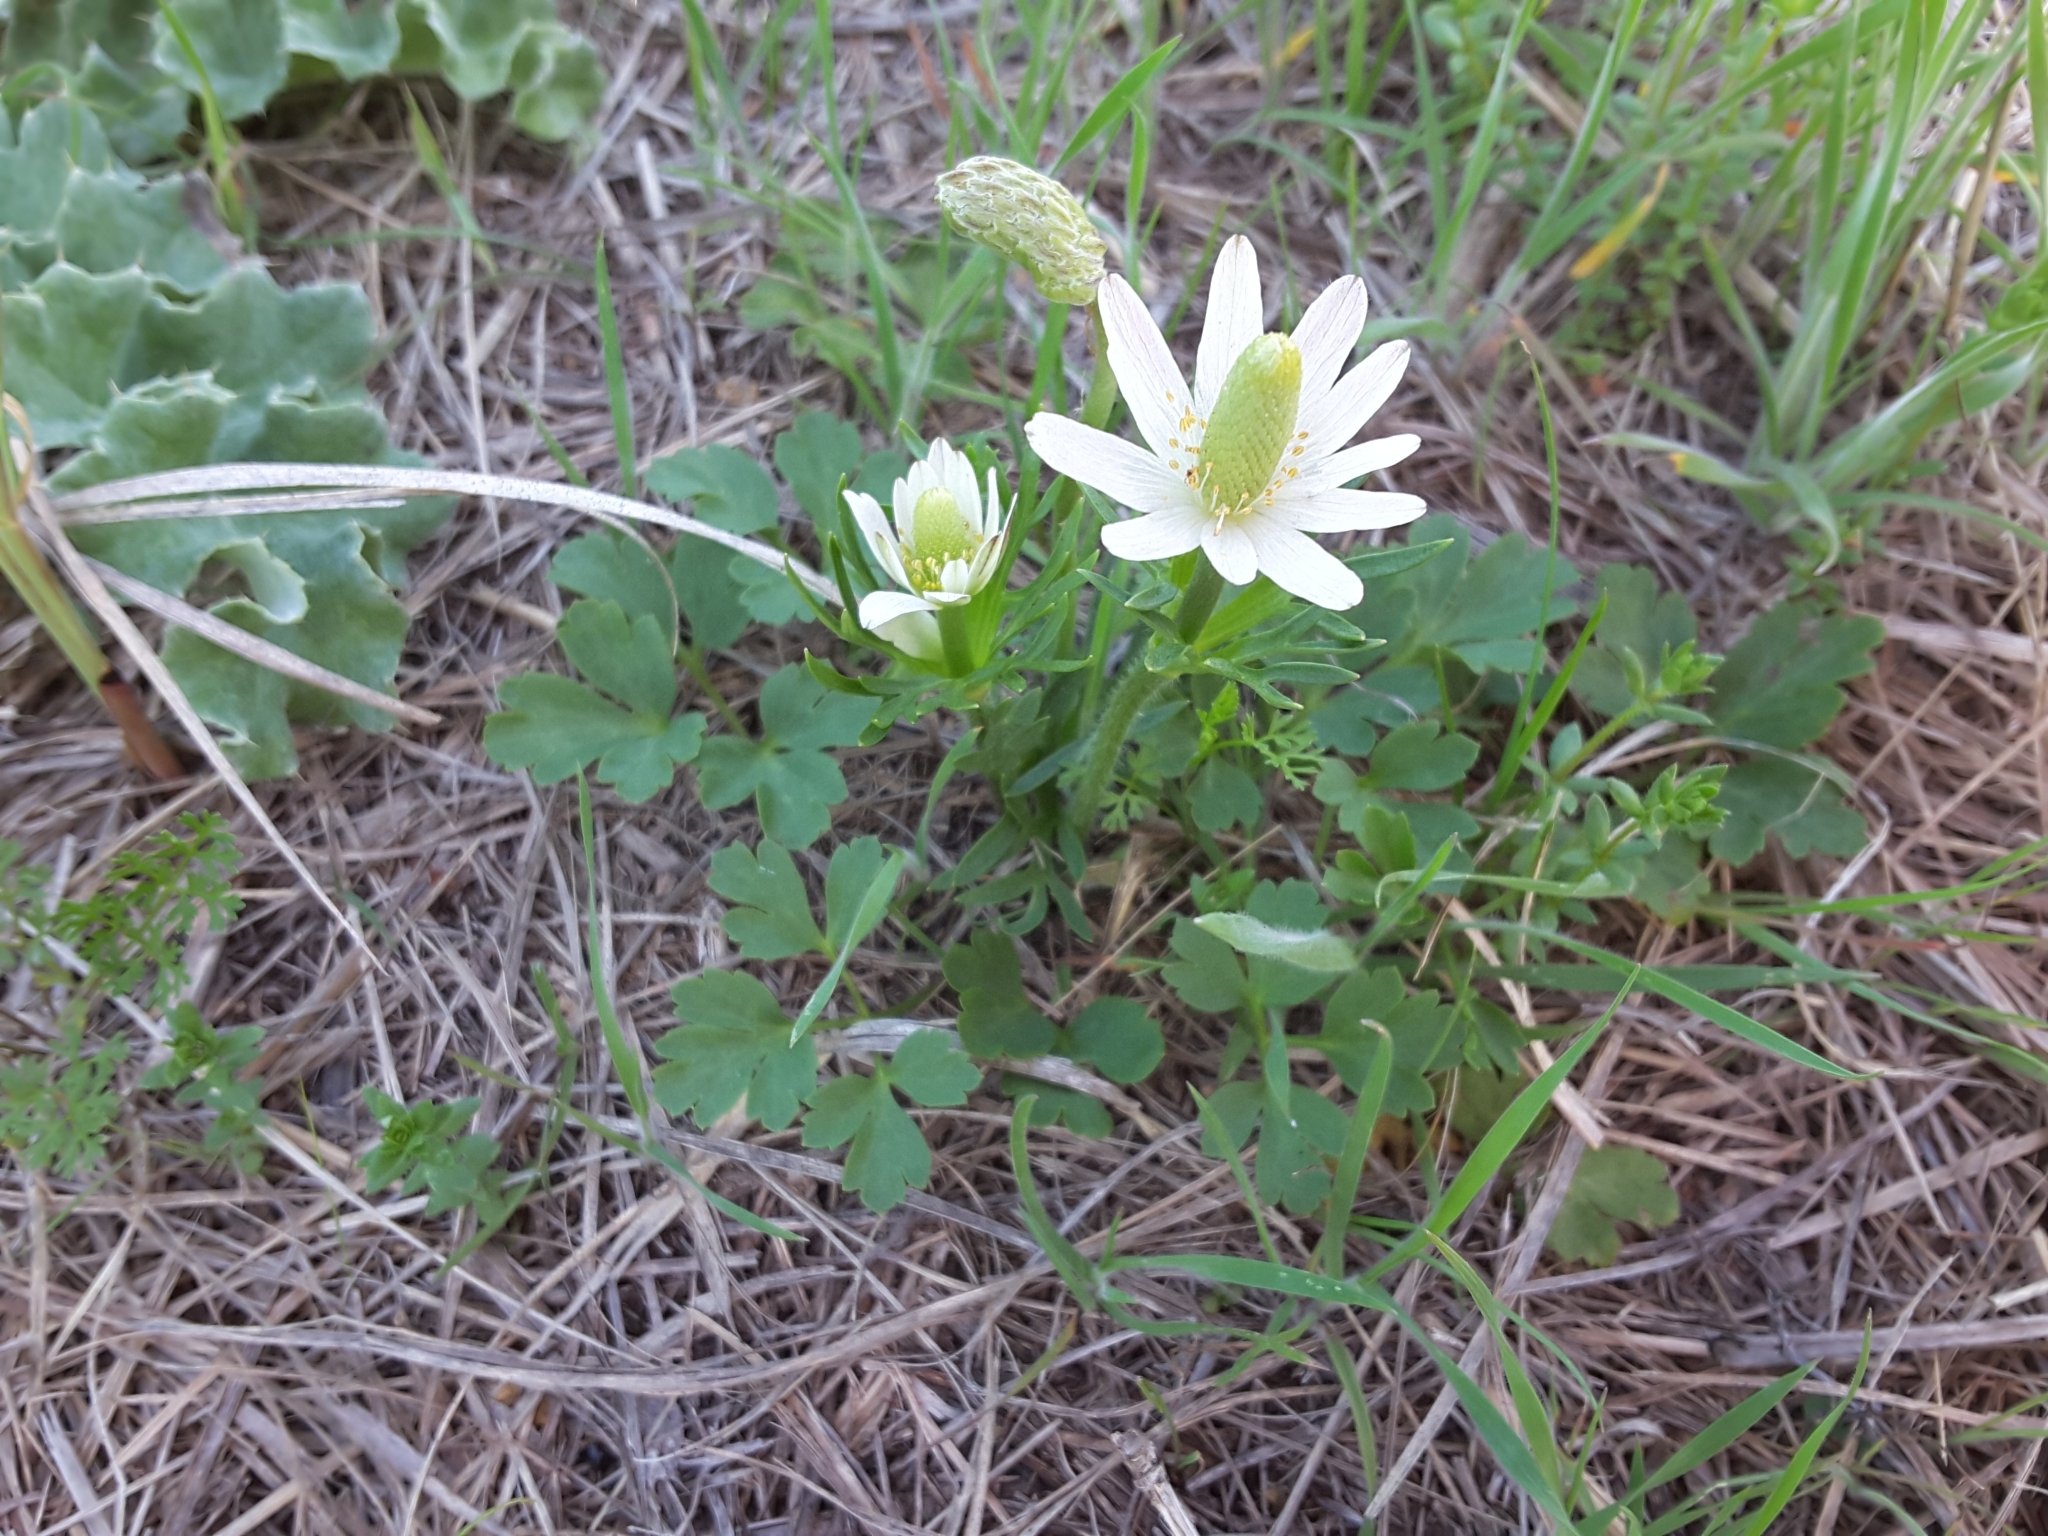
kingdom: Plantae
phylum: Tracheophyta
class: Magnoliopsida
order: Ranunculales
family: Ranunculaceae
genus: Anemone
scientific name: Anemone berlandieri
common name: Ten-petal anemone
